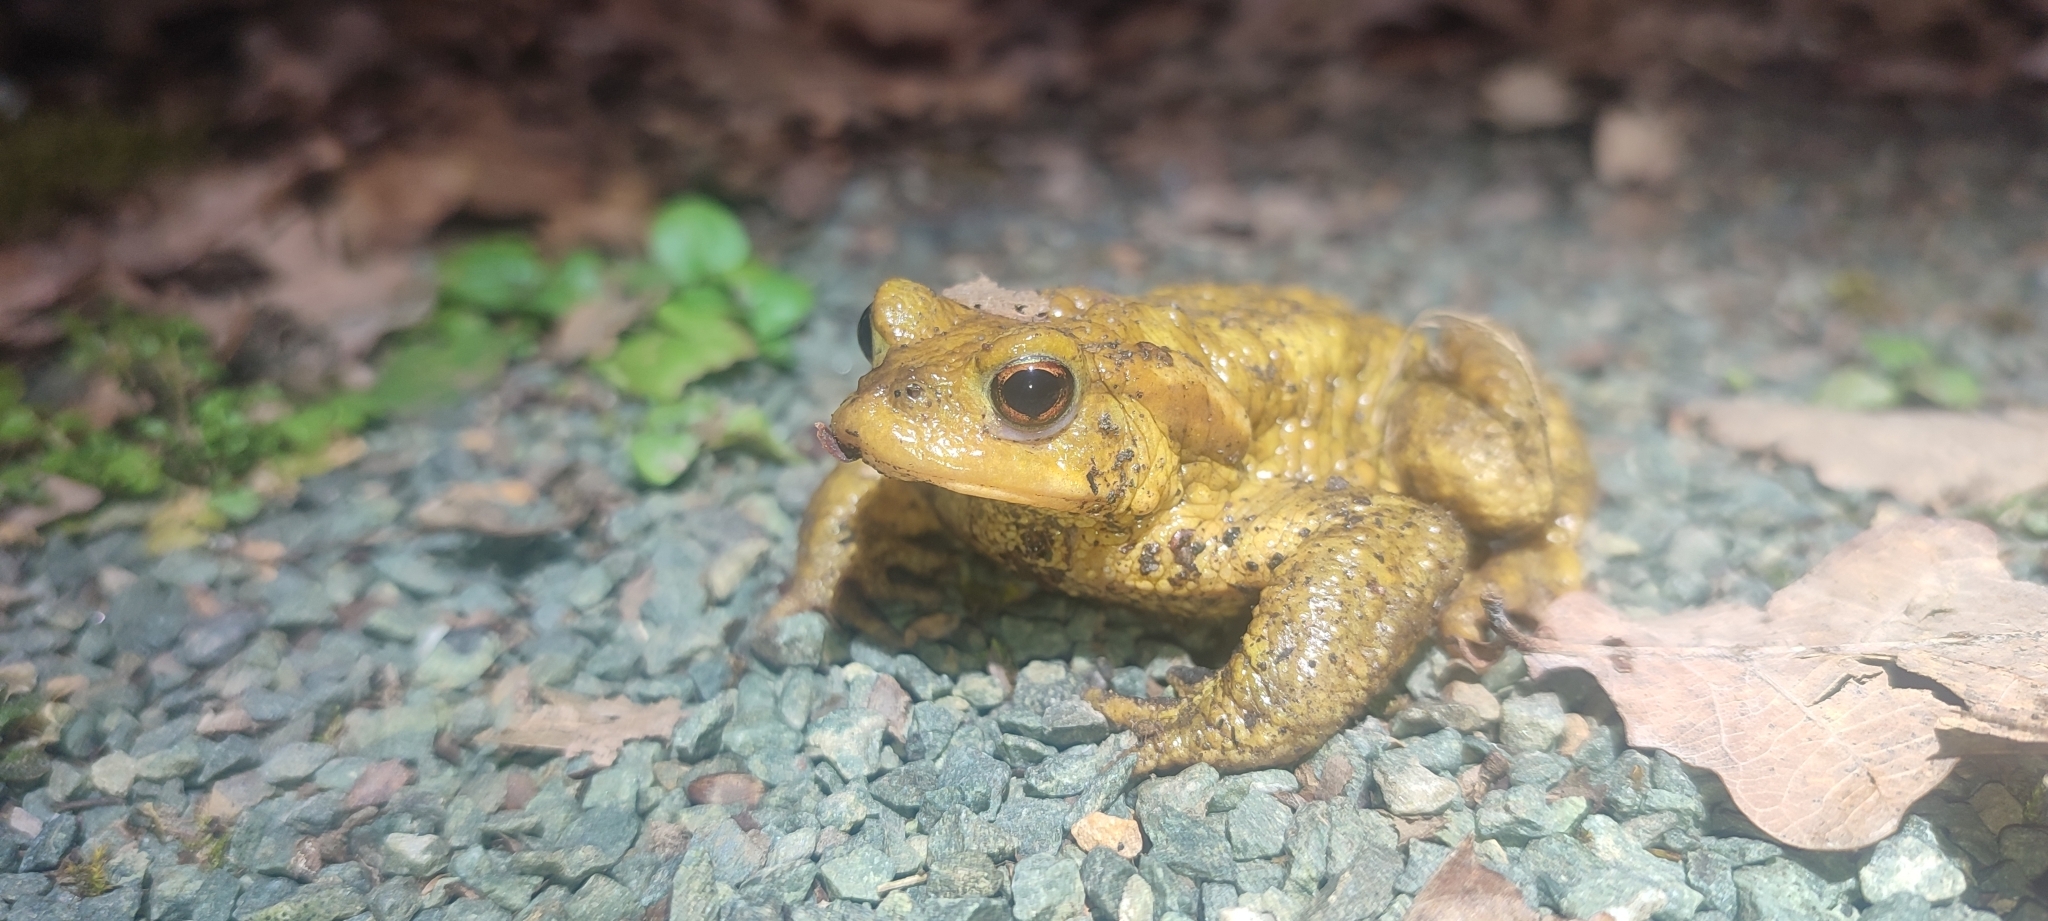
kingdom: Animalia
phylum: Chordata
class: Amphibia
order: Anura
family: Bufonidae
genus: Bufo
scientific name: Bufo spinosus
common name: Western common toad
